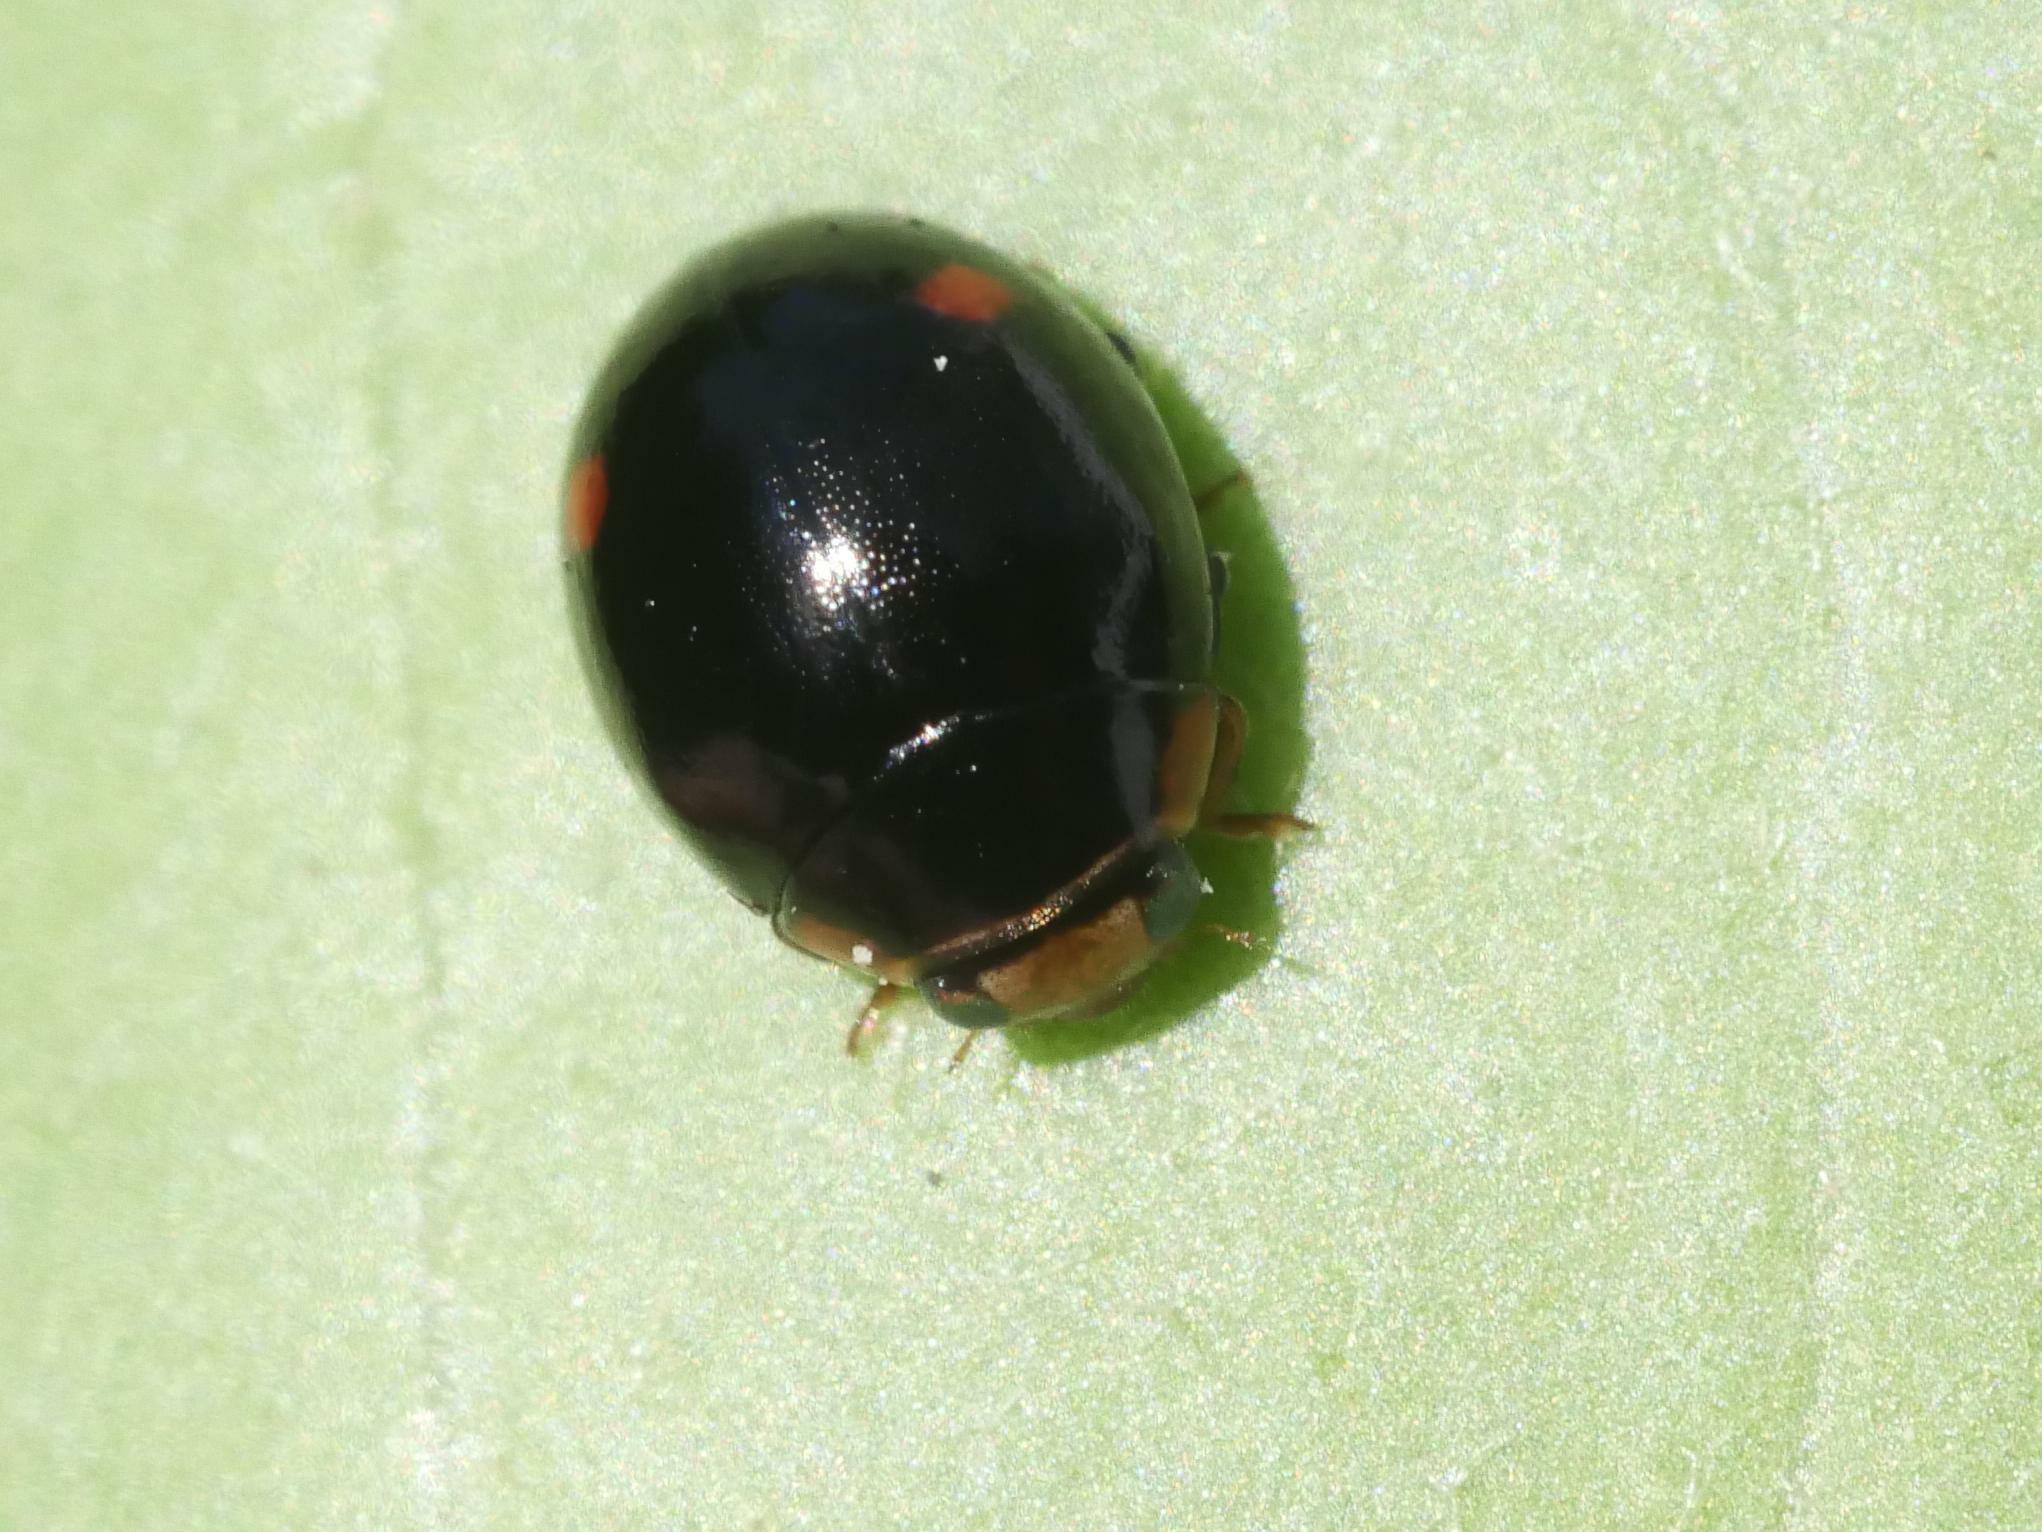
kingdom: Animalia
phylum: Arthropoda
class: Insecta
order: Coleoptera
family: Coccinellidae
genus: Hyperaspis
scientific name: Hyperaspis campestris
